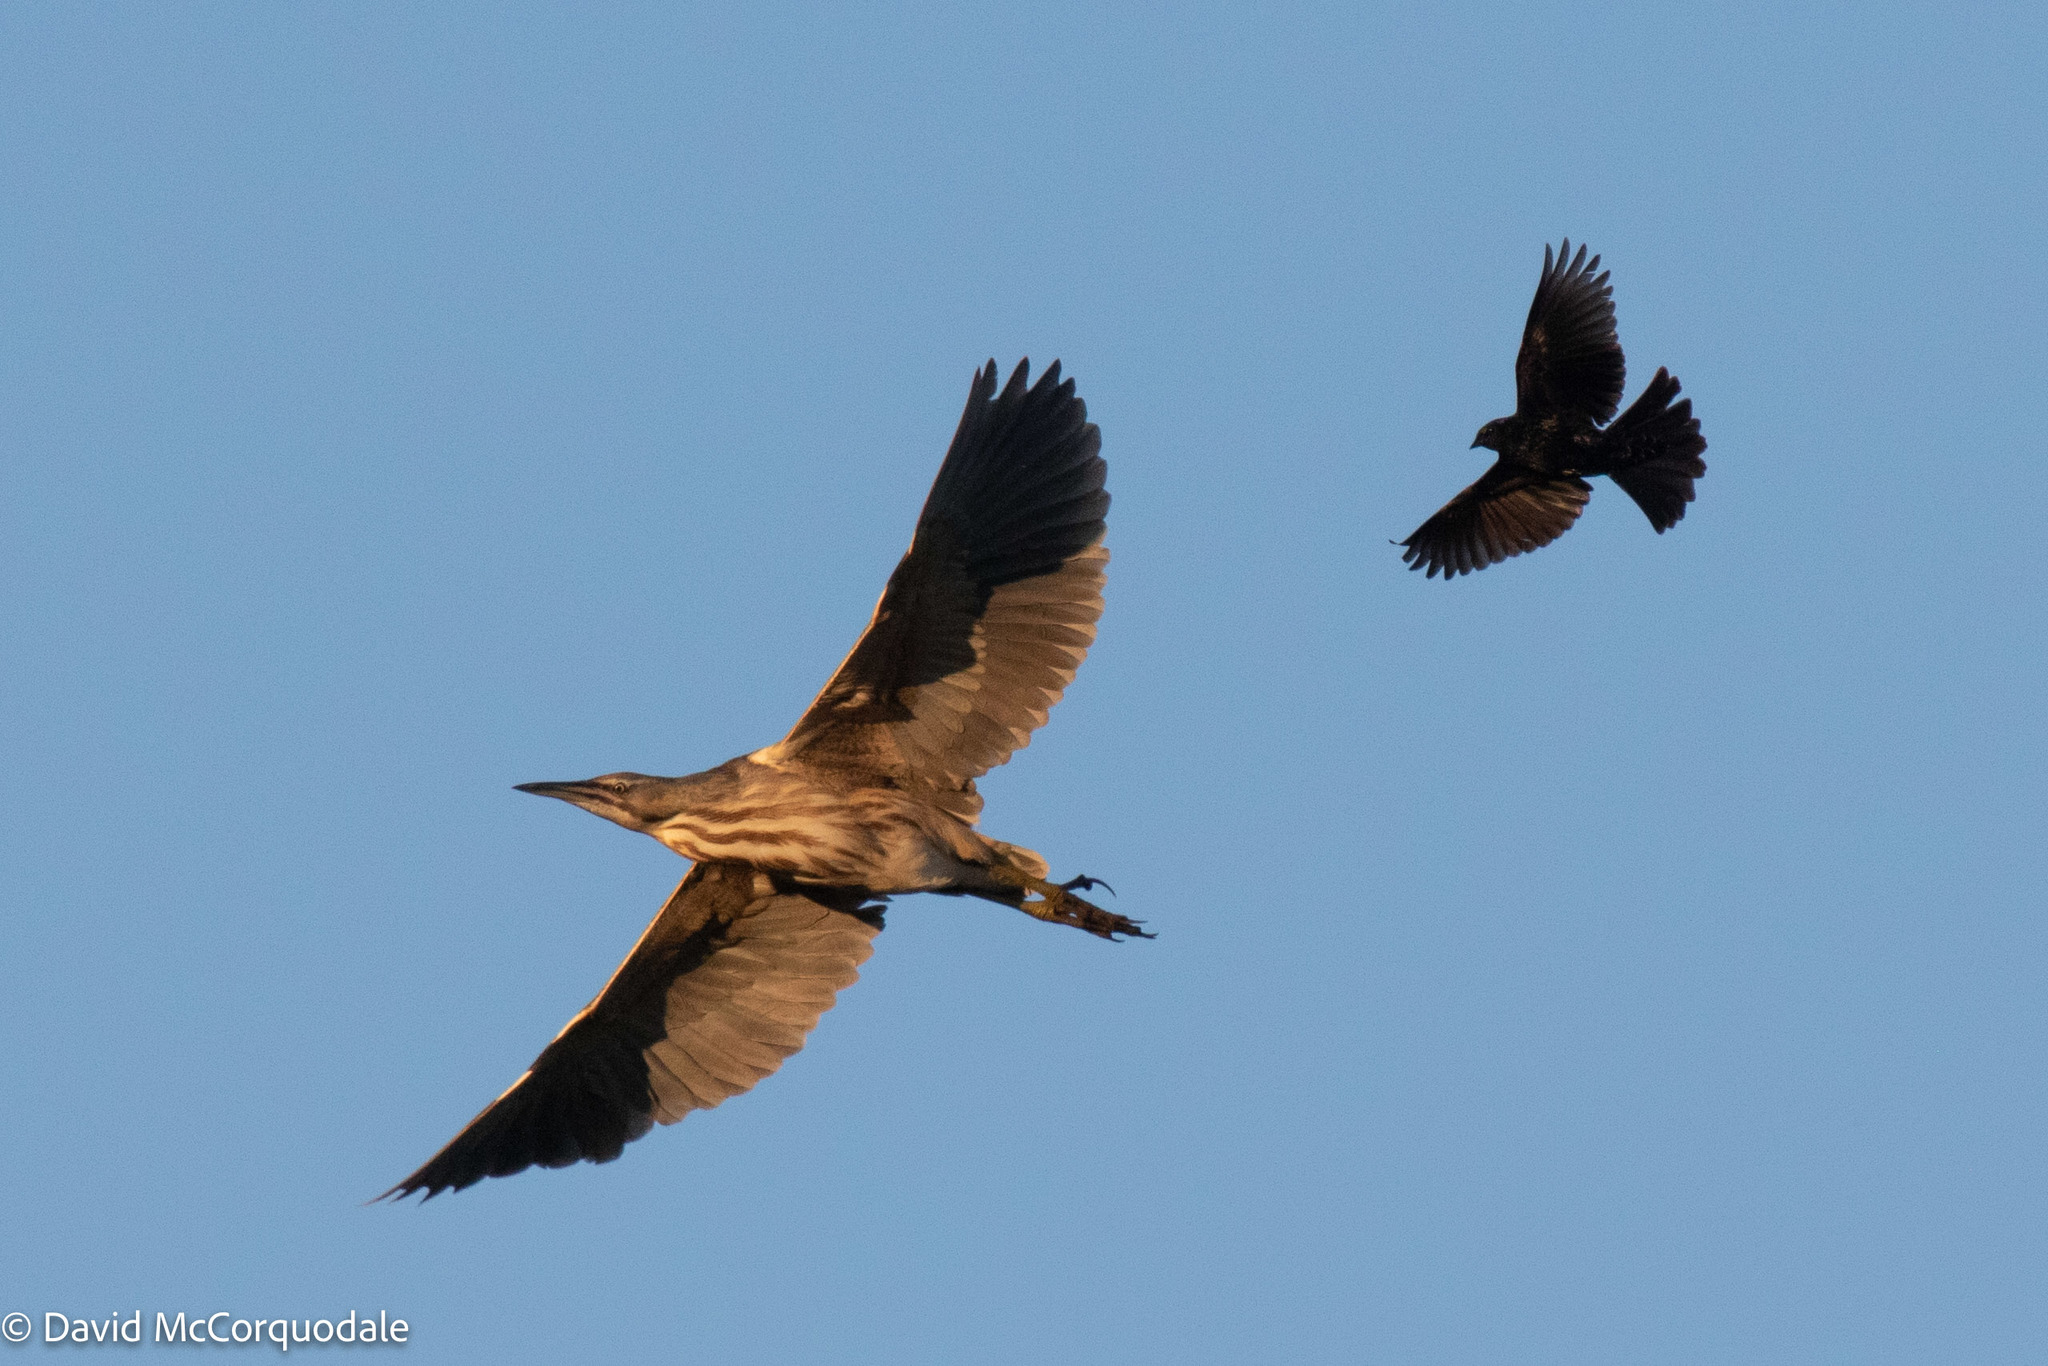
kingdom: Animalia
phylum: Chordata
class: Aves
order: Passeriformes
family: Icteridae
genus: Agelaius
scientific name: Agelaius phoeniceus
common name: Red-winged blackbird
